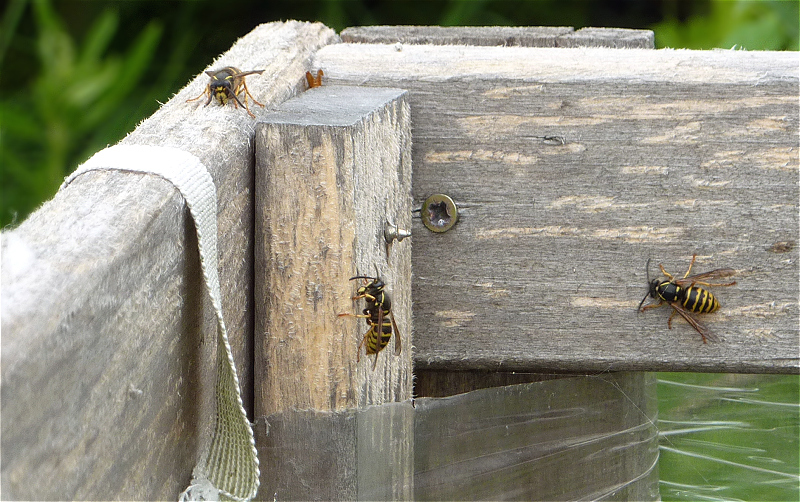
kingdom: Animalia
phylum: Arthropoda
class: Insecta
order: Hymenoptera
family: Vespidae
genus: Dolichovespula
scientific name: Dolichovespula saxonica
